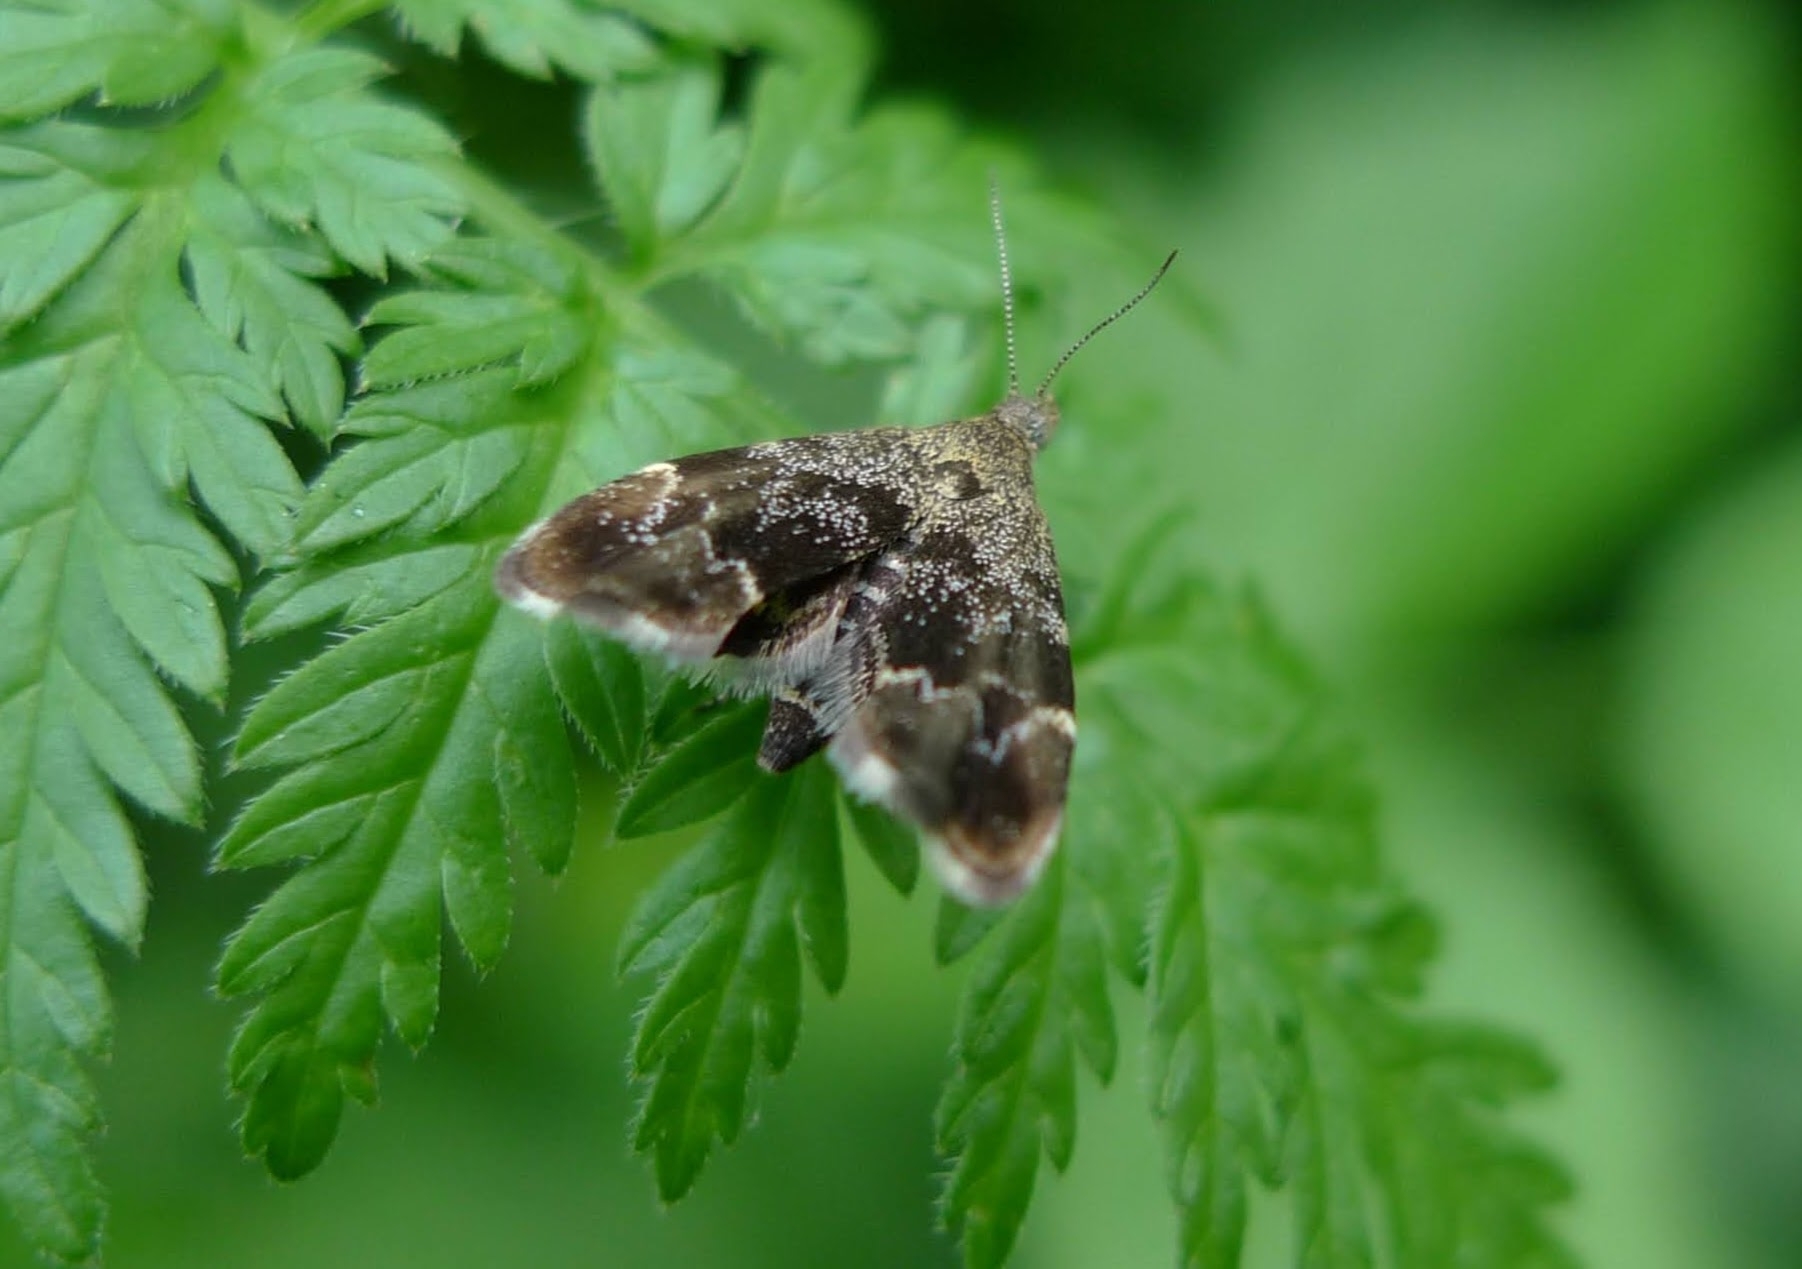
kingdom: Animalia
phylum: Arthropoda
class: Insecta
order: Lepidoptera
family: Choreutidae
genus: Anthophila
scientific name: Anthophila fabriciana
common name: Nettle-tap
